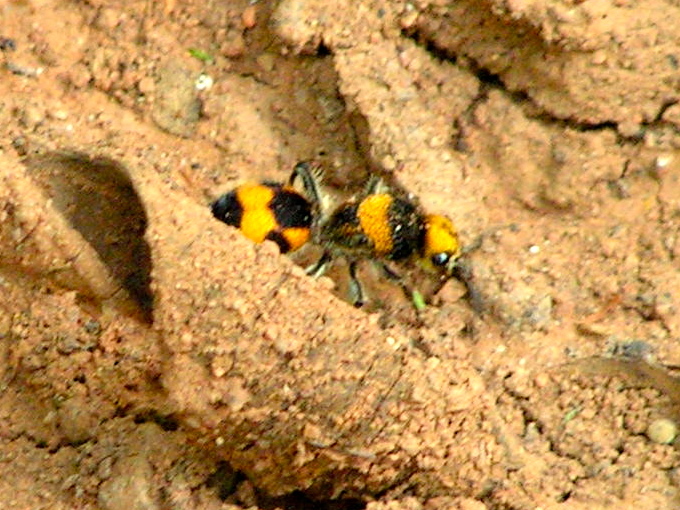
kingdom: Animalia
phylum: Arthropoda
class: Insecta
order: Hymenoptera
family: Mutillidae
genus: Dasymutilla
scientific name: Dasymutilla pulchra
